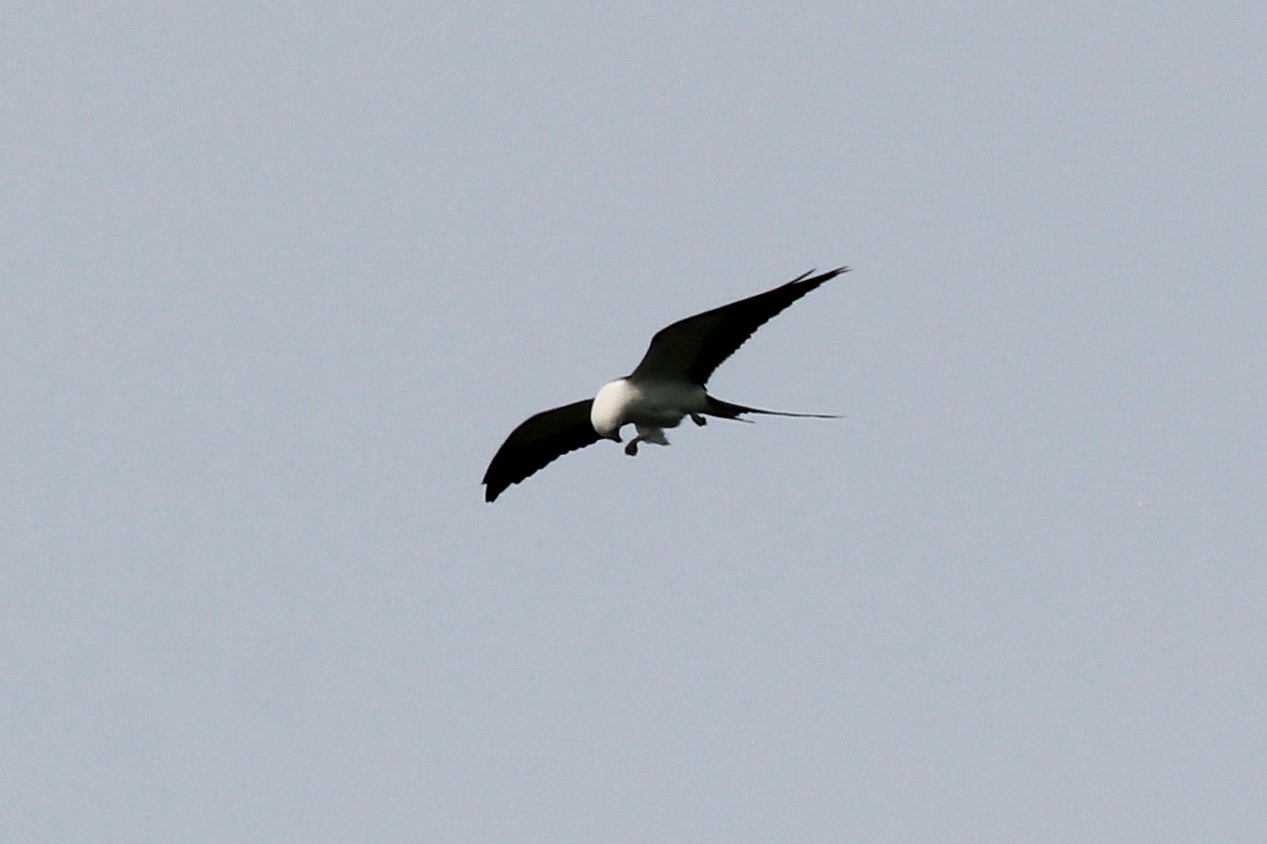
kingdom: Animalia
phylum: Chordata
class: Aves
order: Accipitriformes
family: Accipitridae
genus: Elanoides
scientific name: Elanoides forficatus
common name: Swallow-tailed kite
